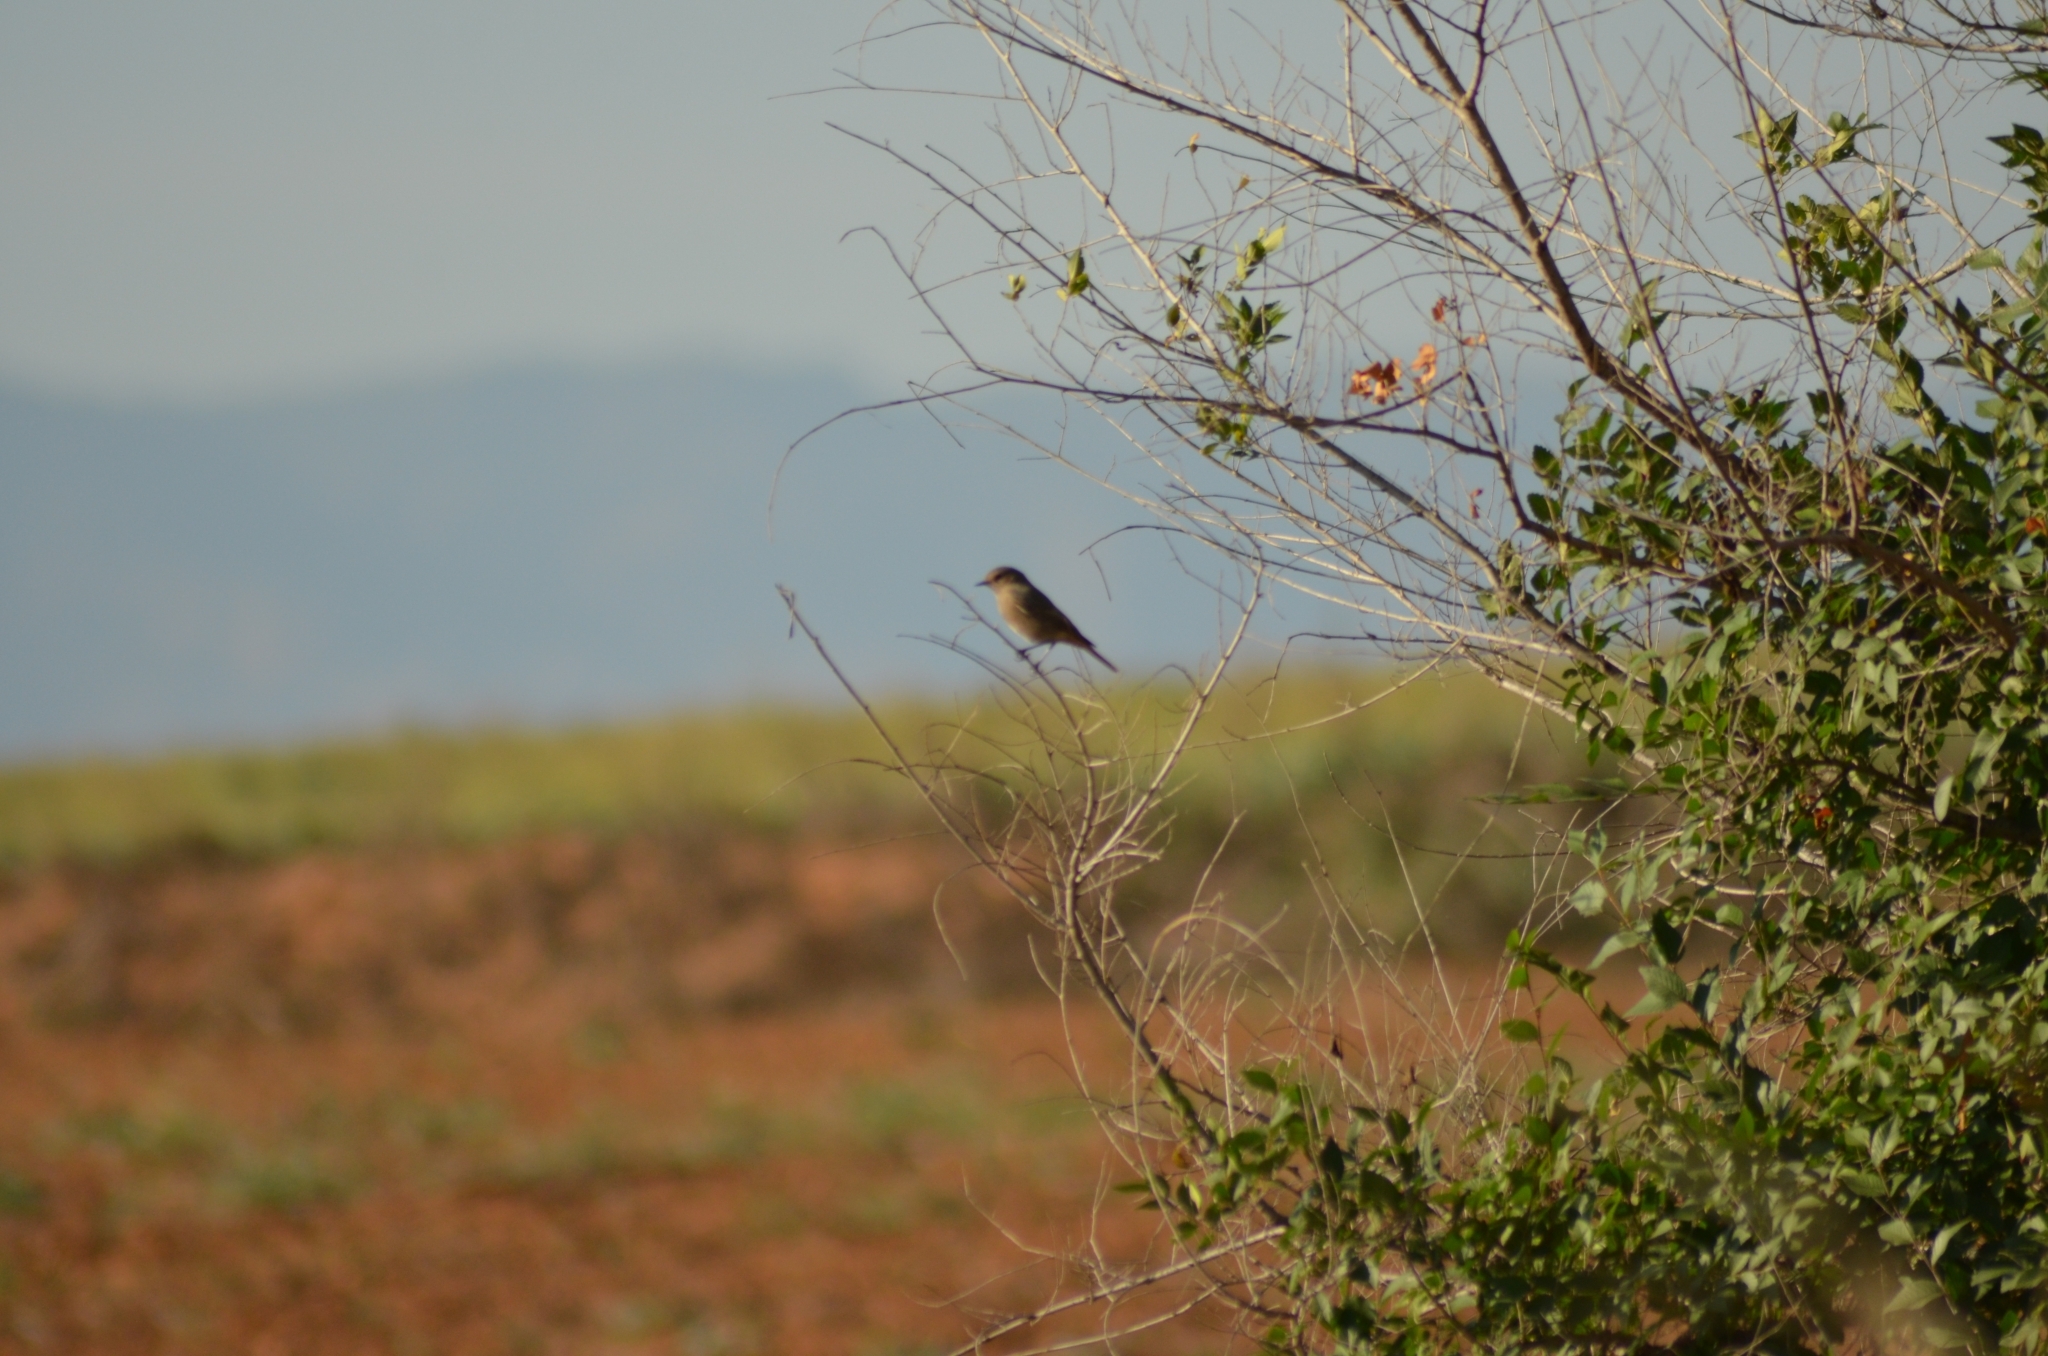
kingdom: Animalia
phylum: Chordata
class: Aves
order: Passeriformes
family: Muscicapidae
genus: Phoenicurus
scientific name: Phoenicurus ochruros
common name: Black redstart
